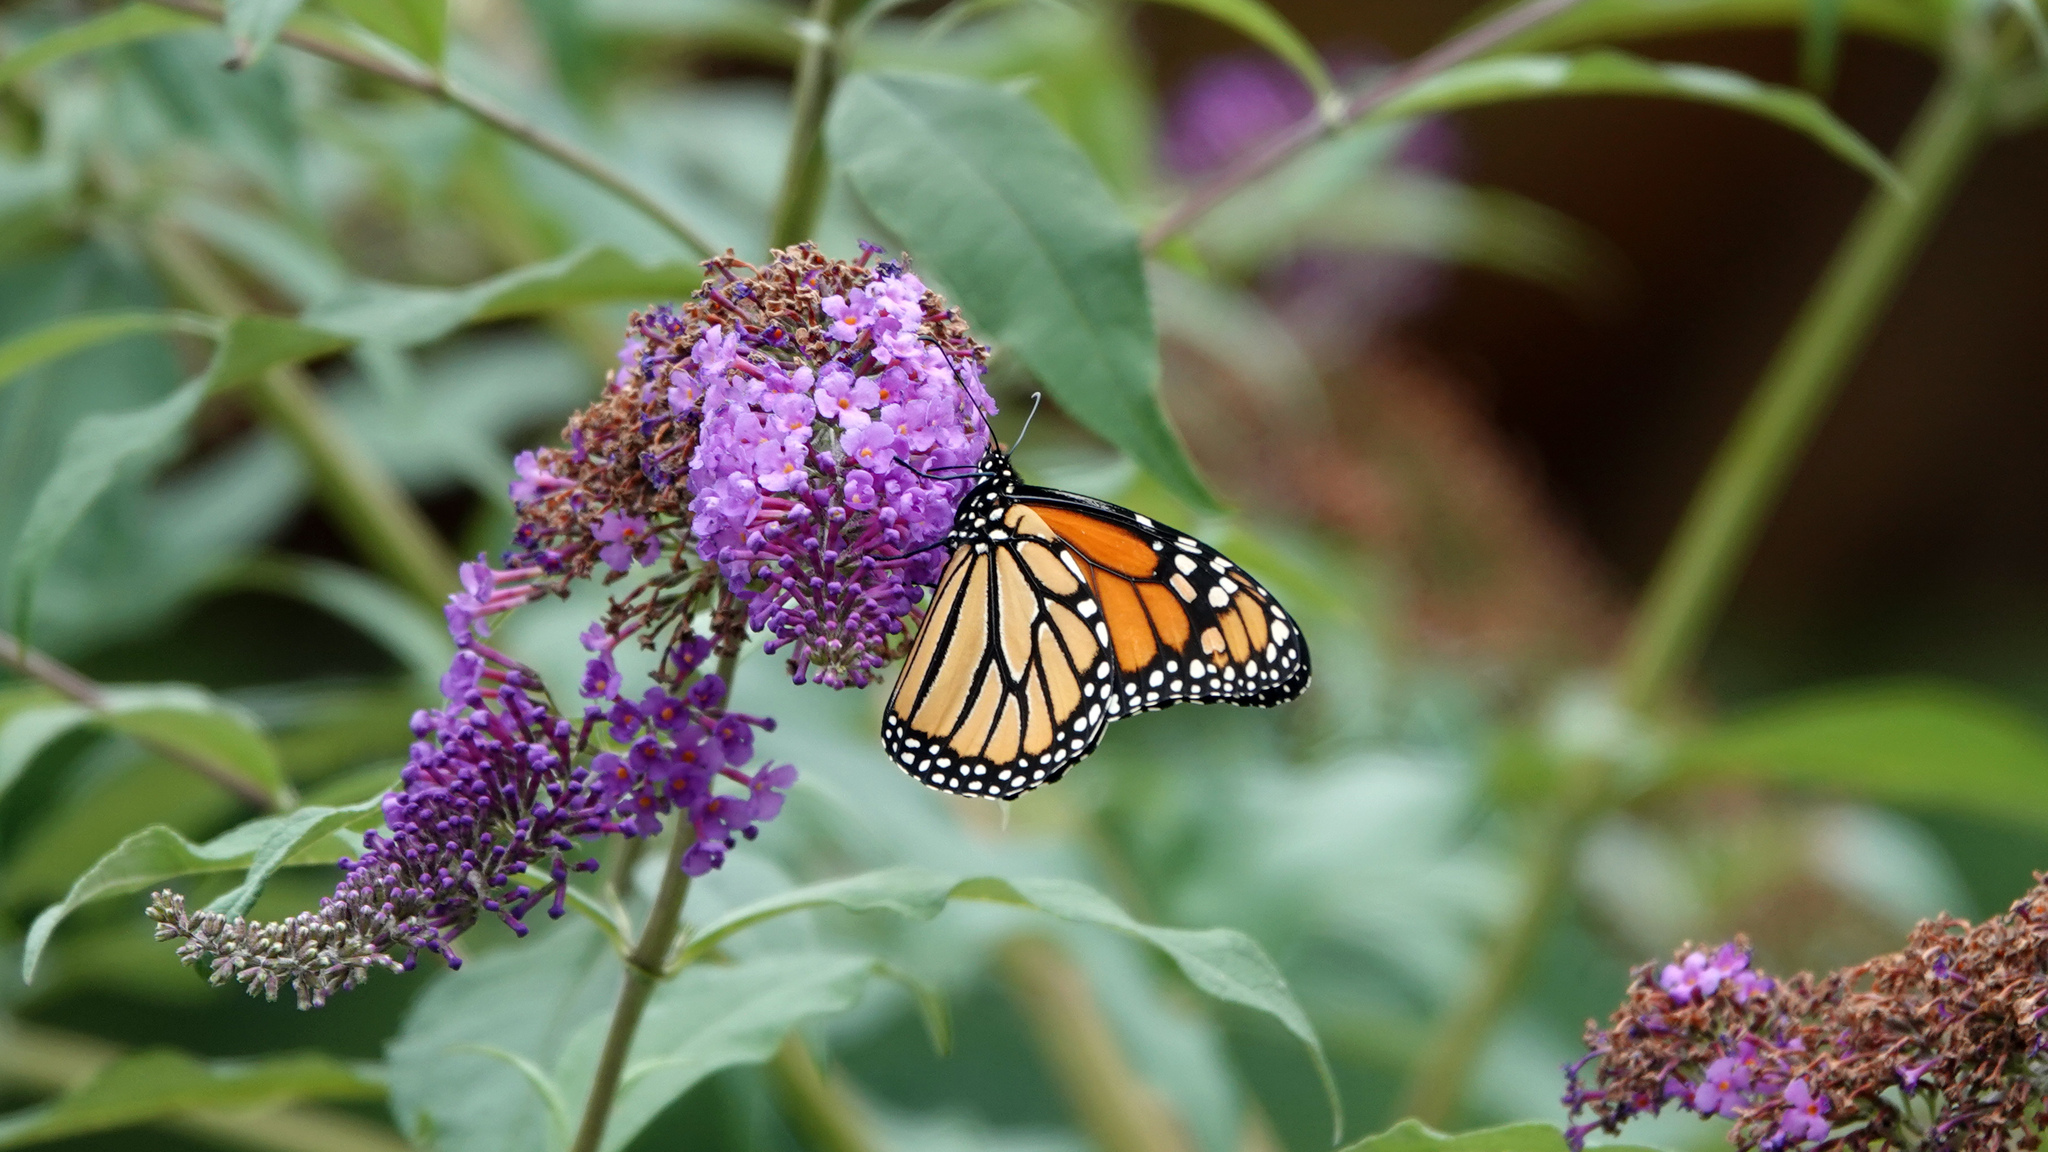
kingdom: Animalia
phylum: Arthropoda
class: Insecta
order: Lepidoptera
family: Nymphalidae
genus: Danaus
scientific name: Danaus plexippus
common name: Monarch
